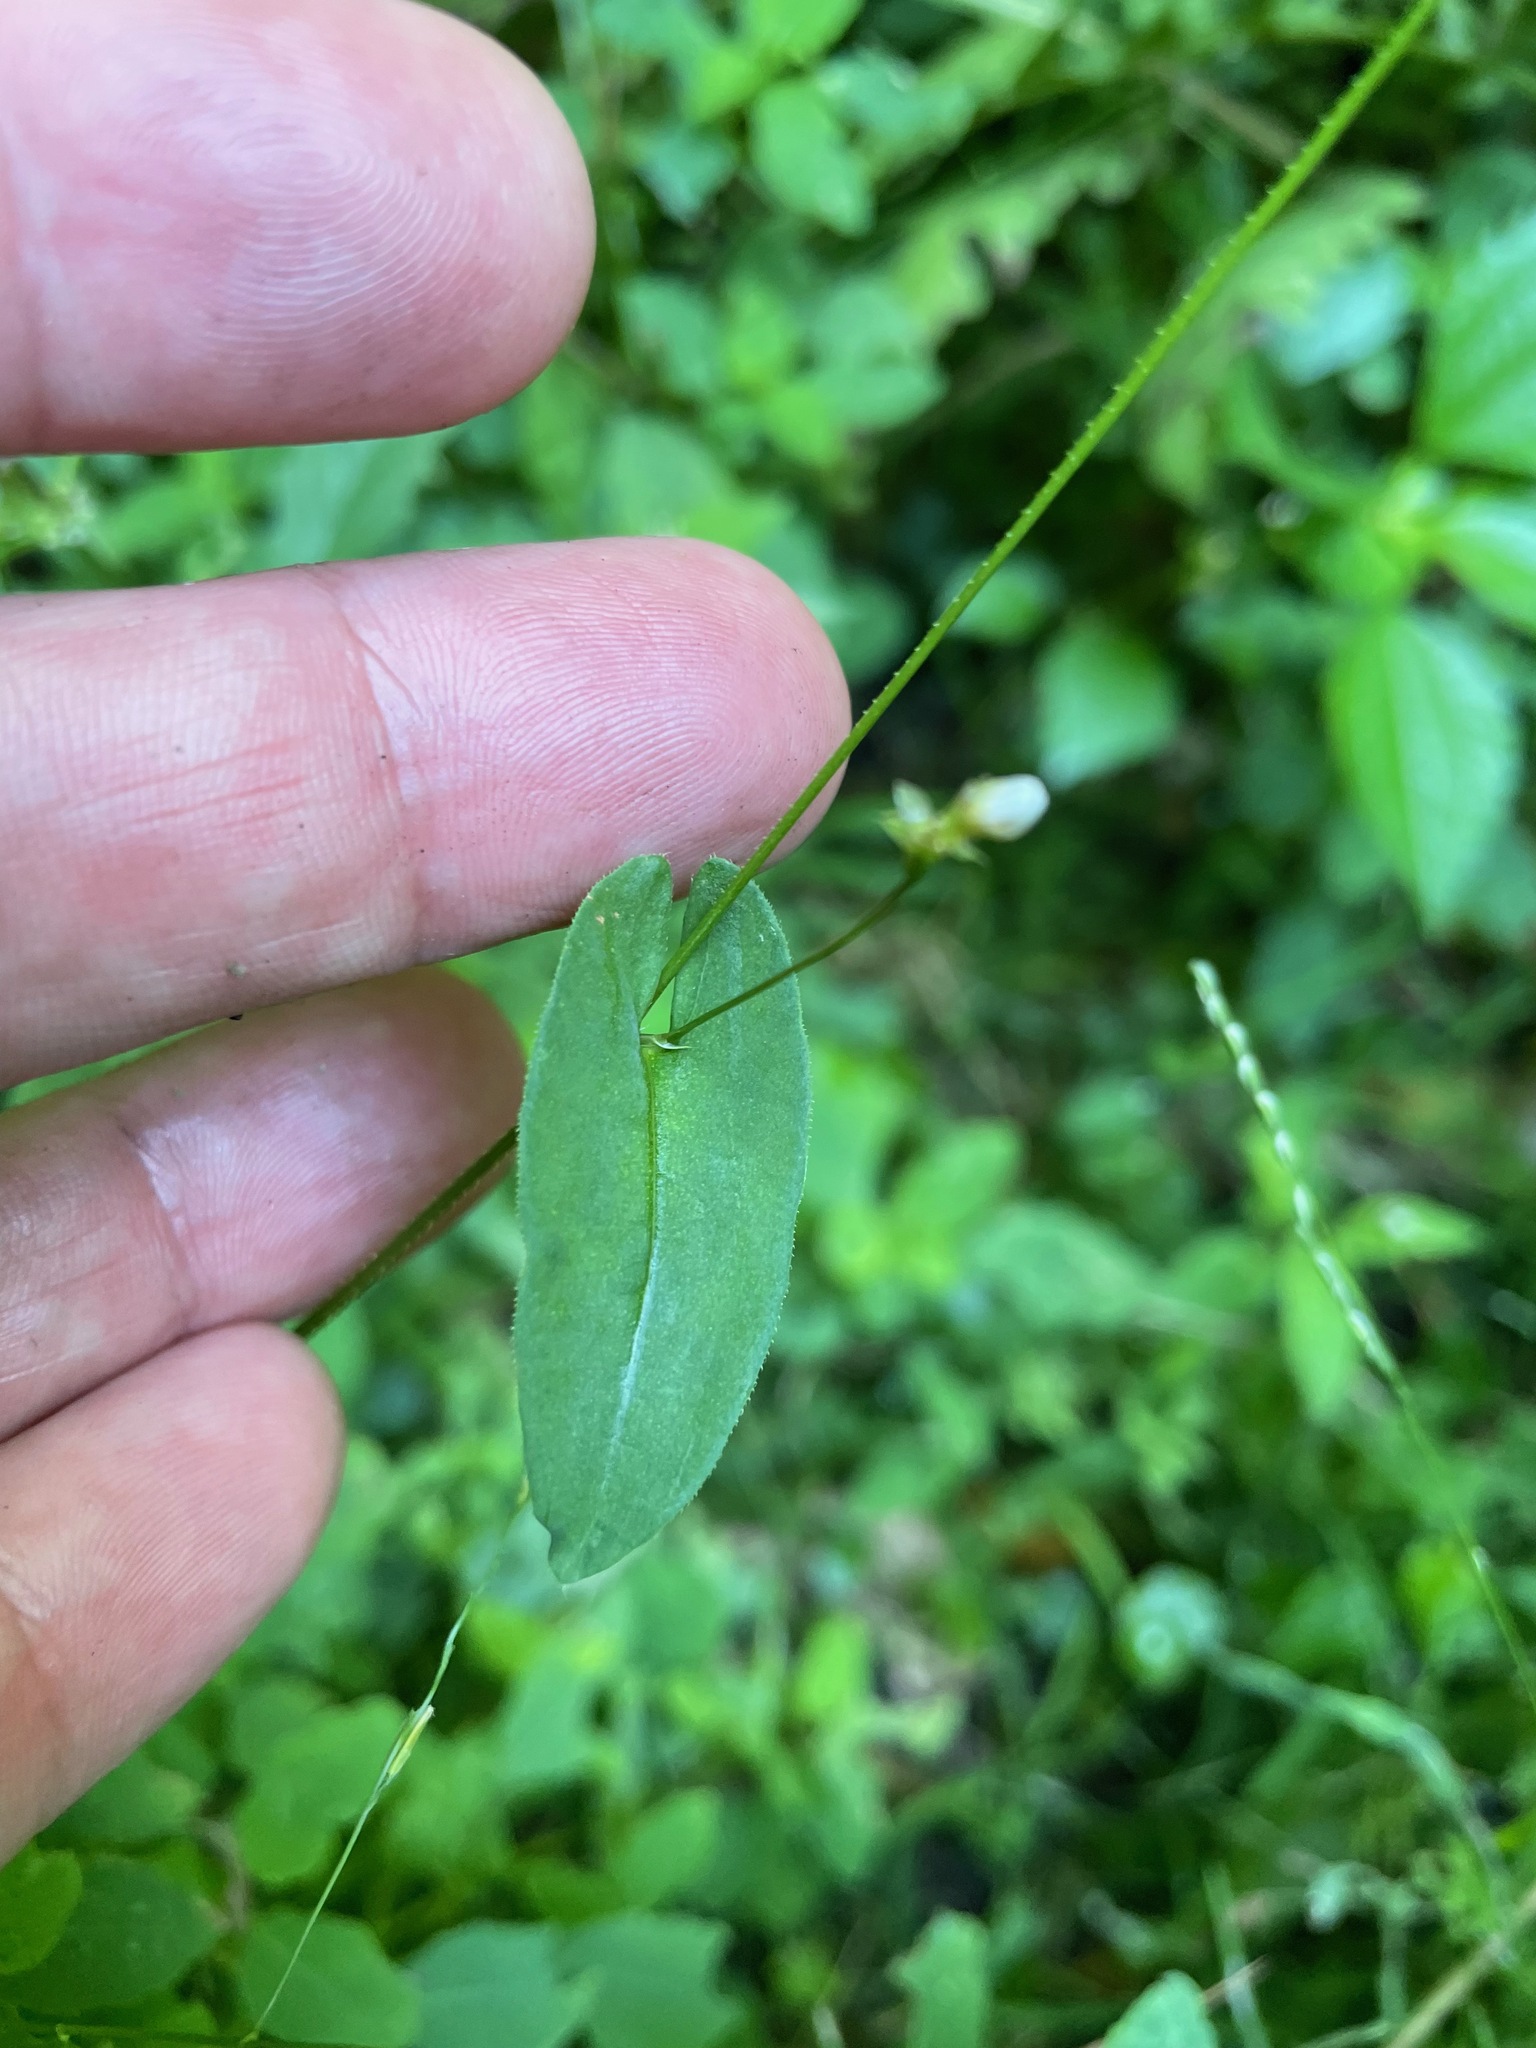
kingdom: Plantae
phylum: Tracheophyta
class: Magnoliopsida
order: Caryophyllales
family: Polygonaceae
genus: Persicaria
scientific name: Persicaria sagittata
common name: American tearthumb
